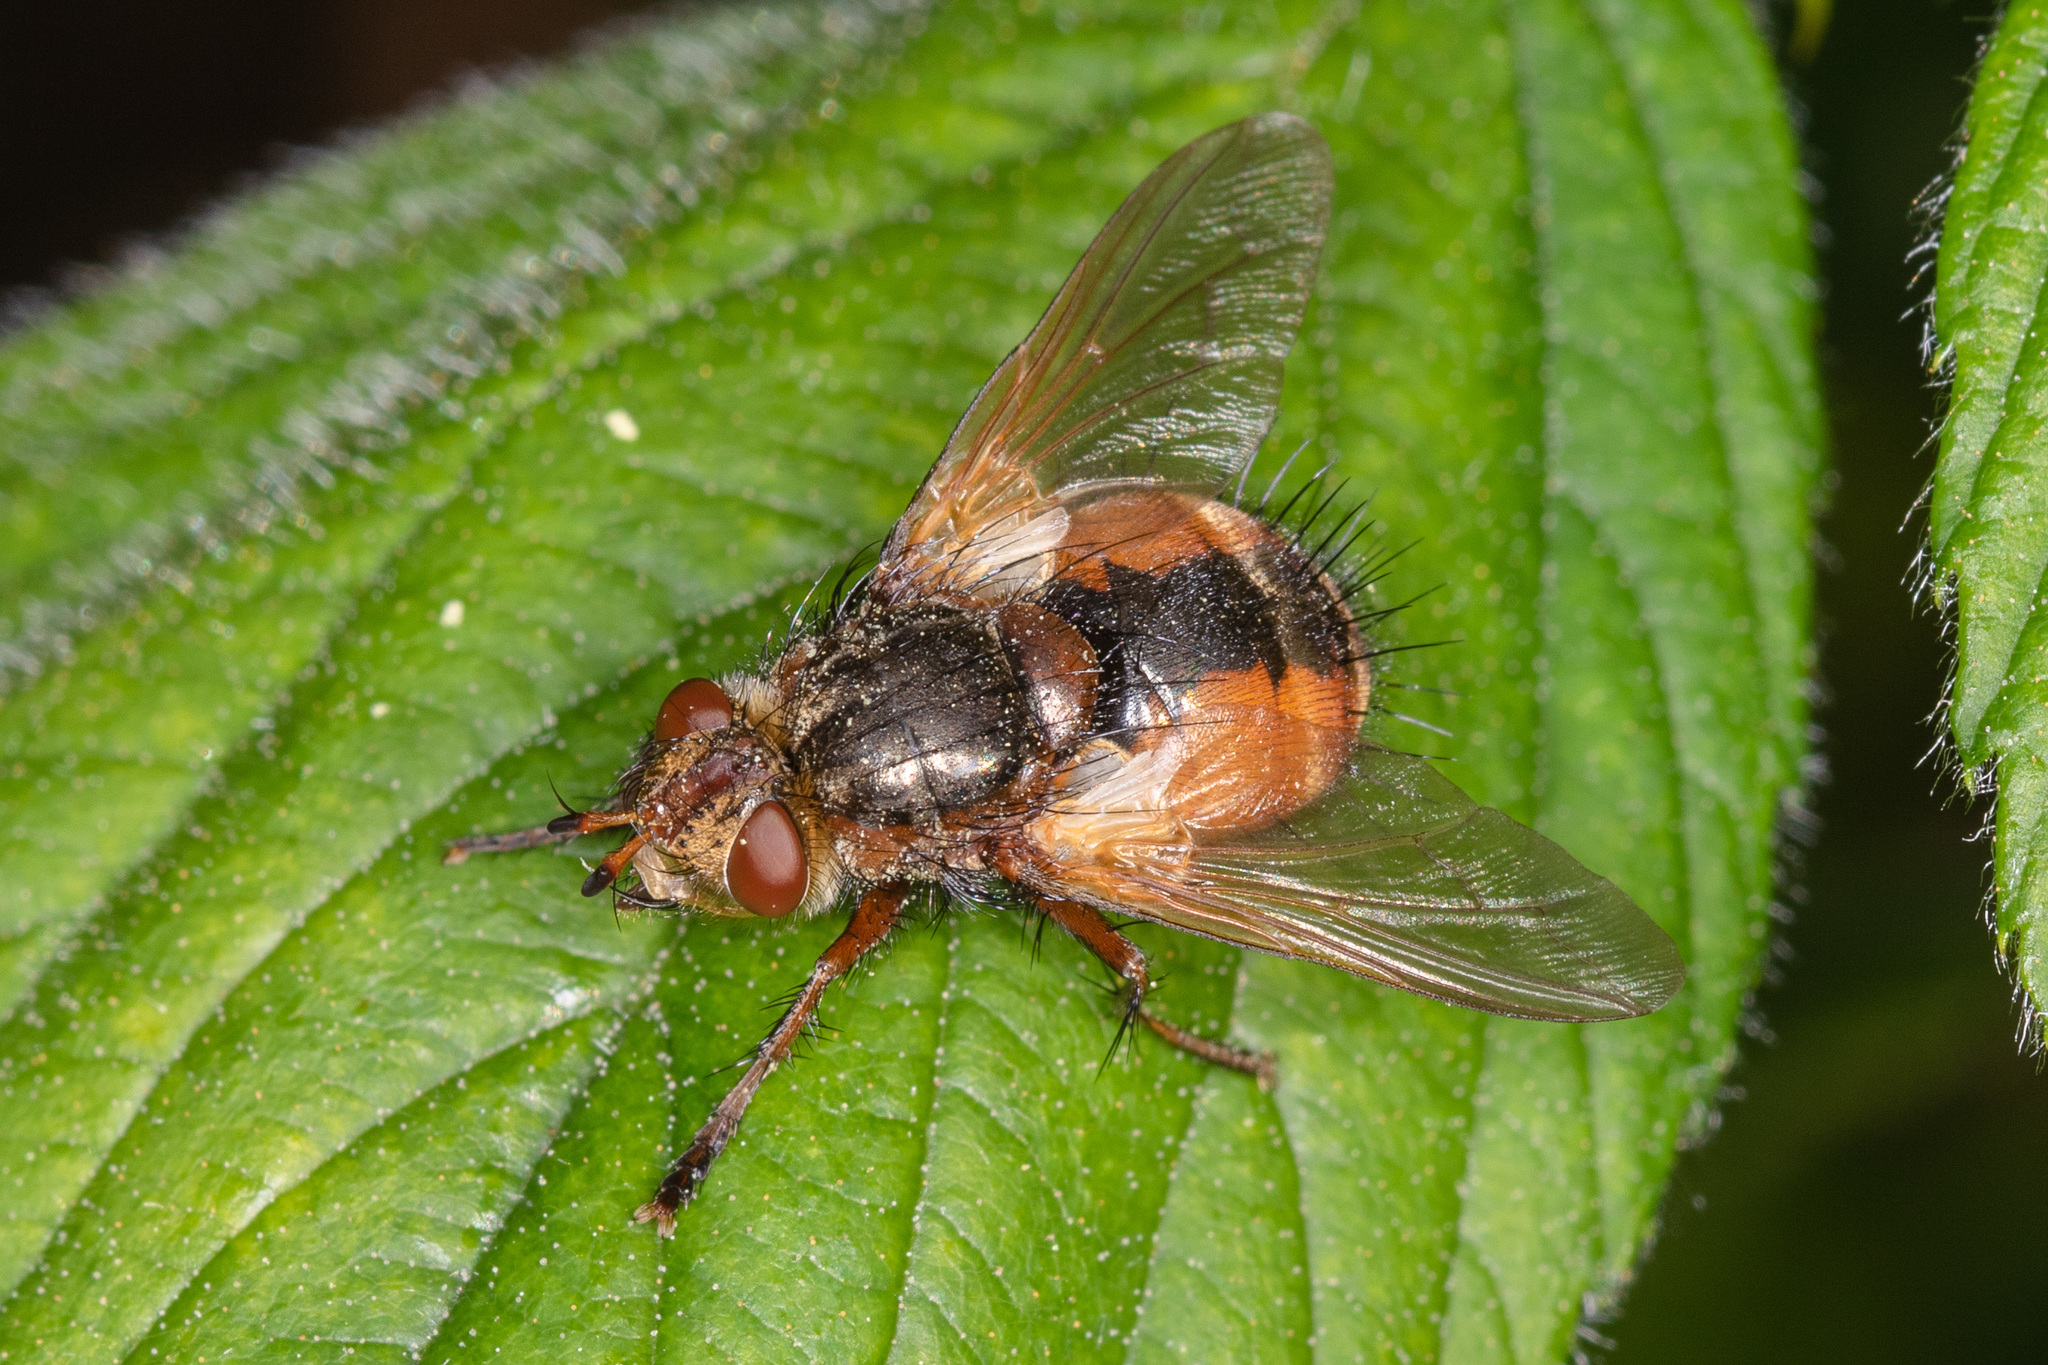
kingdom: Animalia
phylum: Arthropoda
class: Insecta
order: Diptera
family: Tachinidae
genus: Tachina
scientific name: Tachina fera
